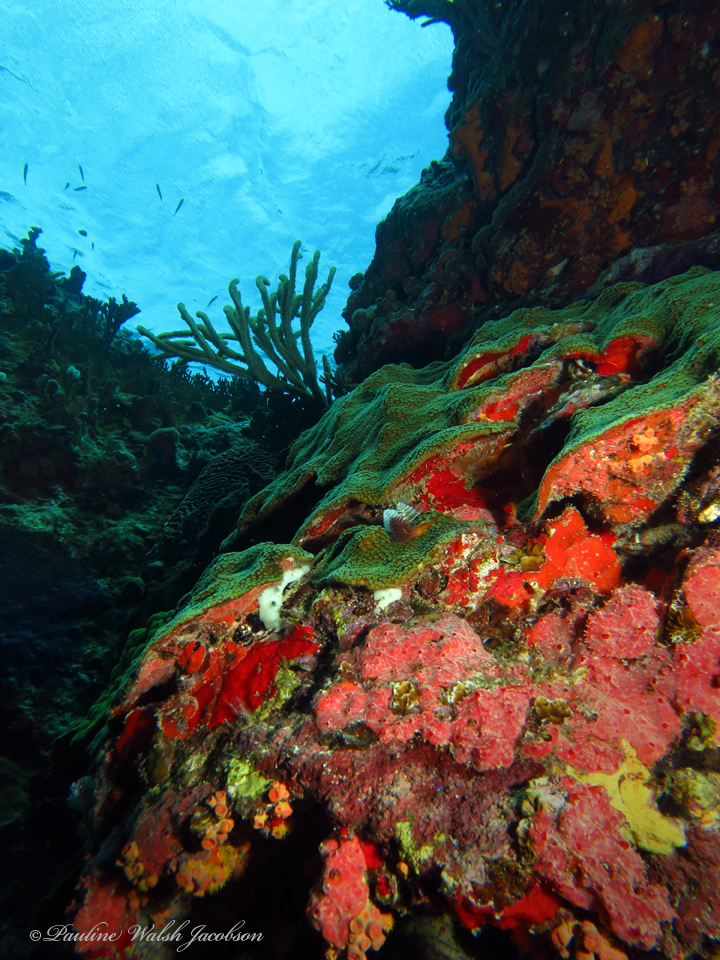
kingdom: Animalia
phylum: Cnidaria
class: Anthozoa
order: Scleractinia
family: Merulinidae
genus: Orbicella
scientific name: Orbicella faveolata
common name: Mountainous star coral
